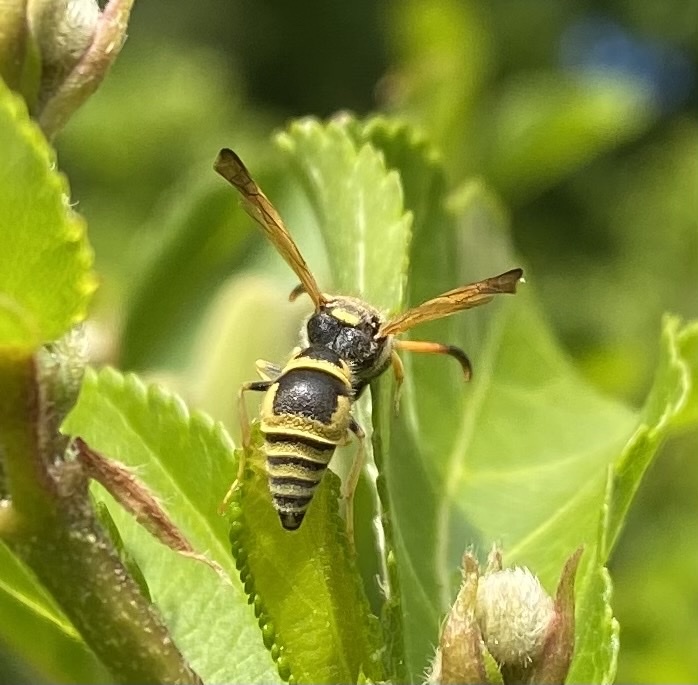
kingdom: Animalia
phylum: Arthropoda
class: Insecta
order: Hymenoptera
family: Vespidae
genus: Ancistrocerus
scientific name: Ancistrocerus tuberculocephalus
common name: Vespid wasp
